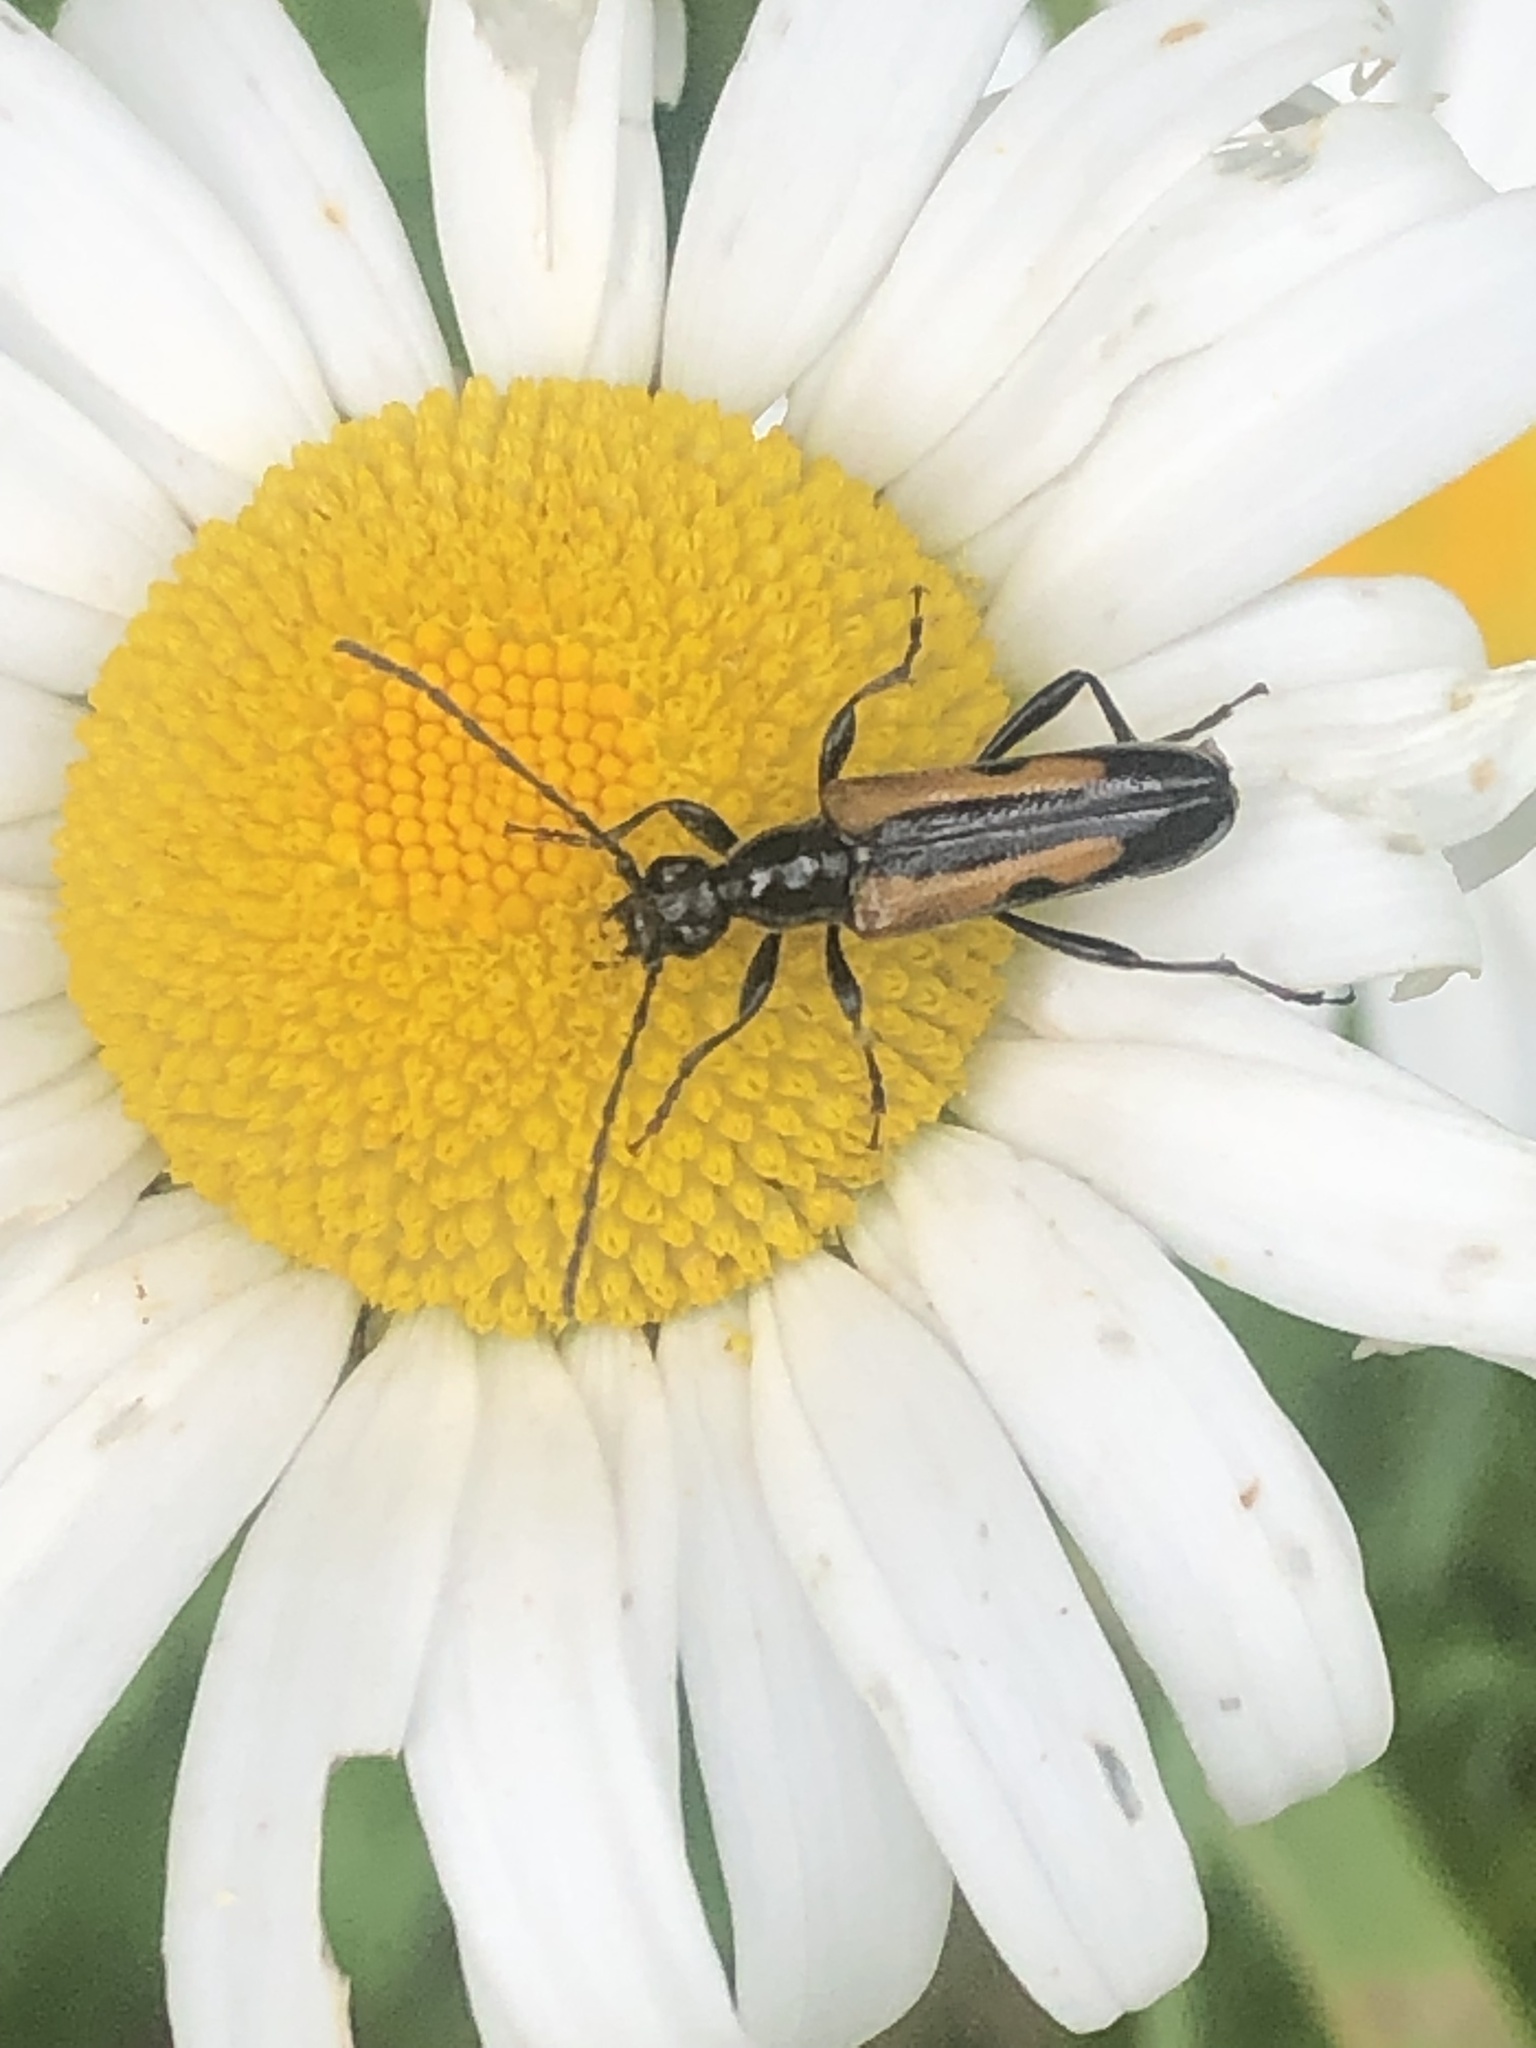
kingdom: Animalia
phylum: Arthropoda
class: Insecta
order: Coleoptera
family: Cerambycidae
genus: Strangalepta
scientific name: Strangalepta abbreviata
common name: Strangalepta flower longhorn beetle
